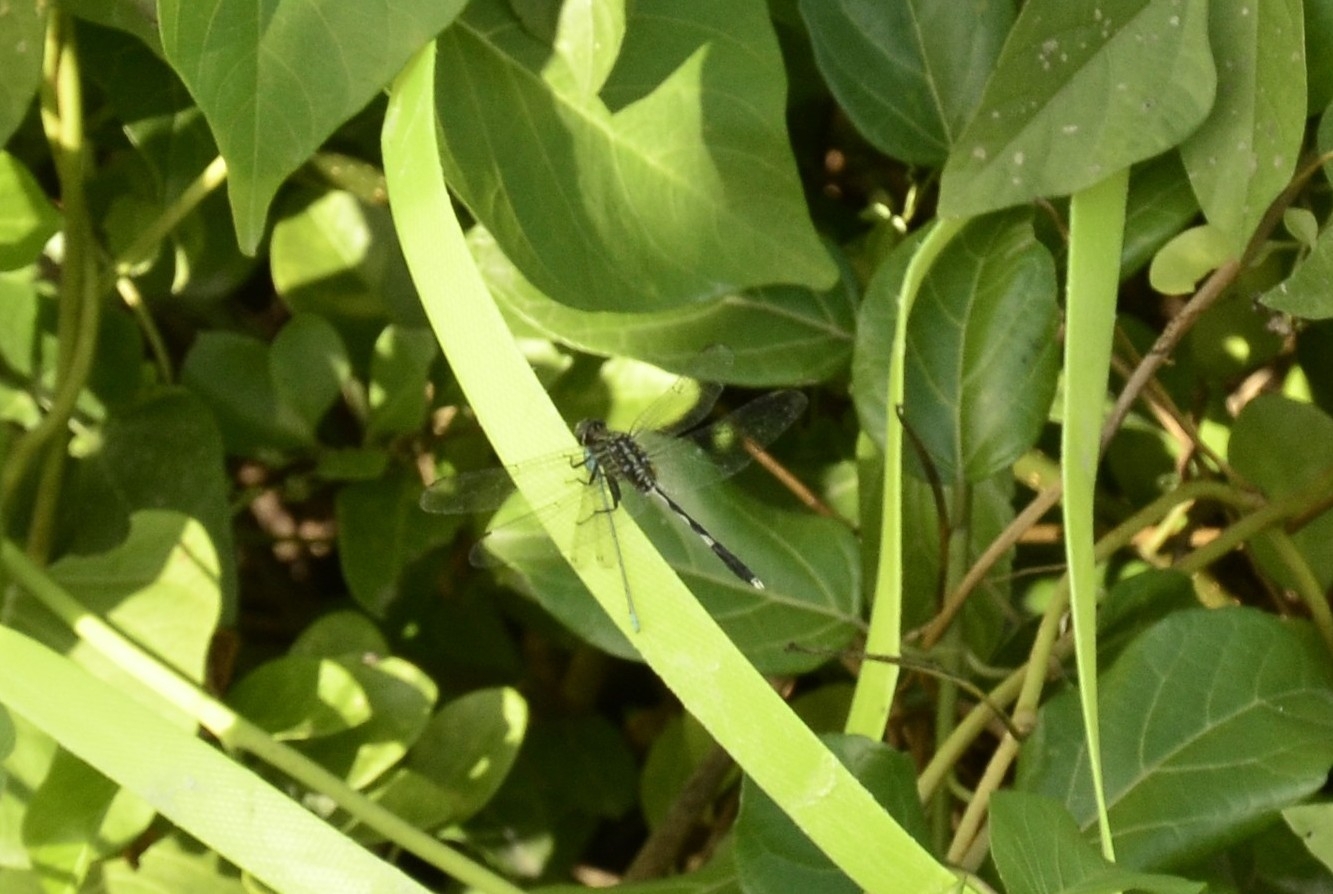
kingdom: Animalia
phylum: Arthropoda
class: Insecta
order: Odonata
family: Libellulidae
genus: Orthetrum
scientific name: Orthetrum sabina
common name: Slender skimmer
